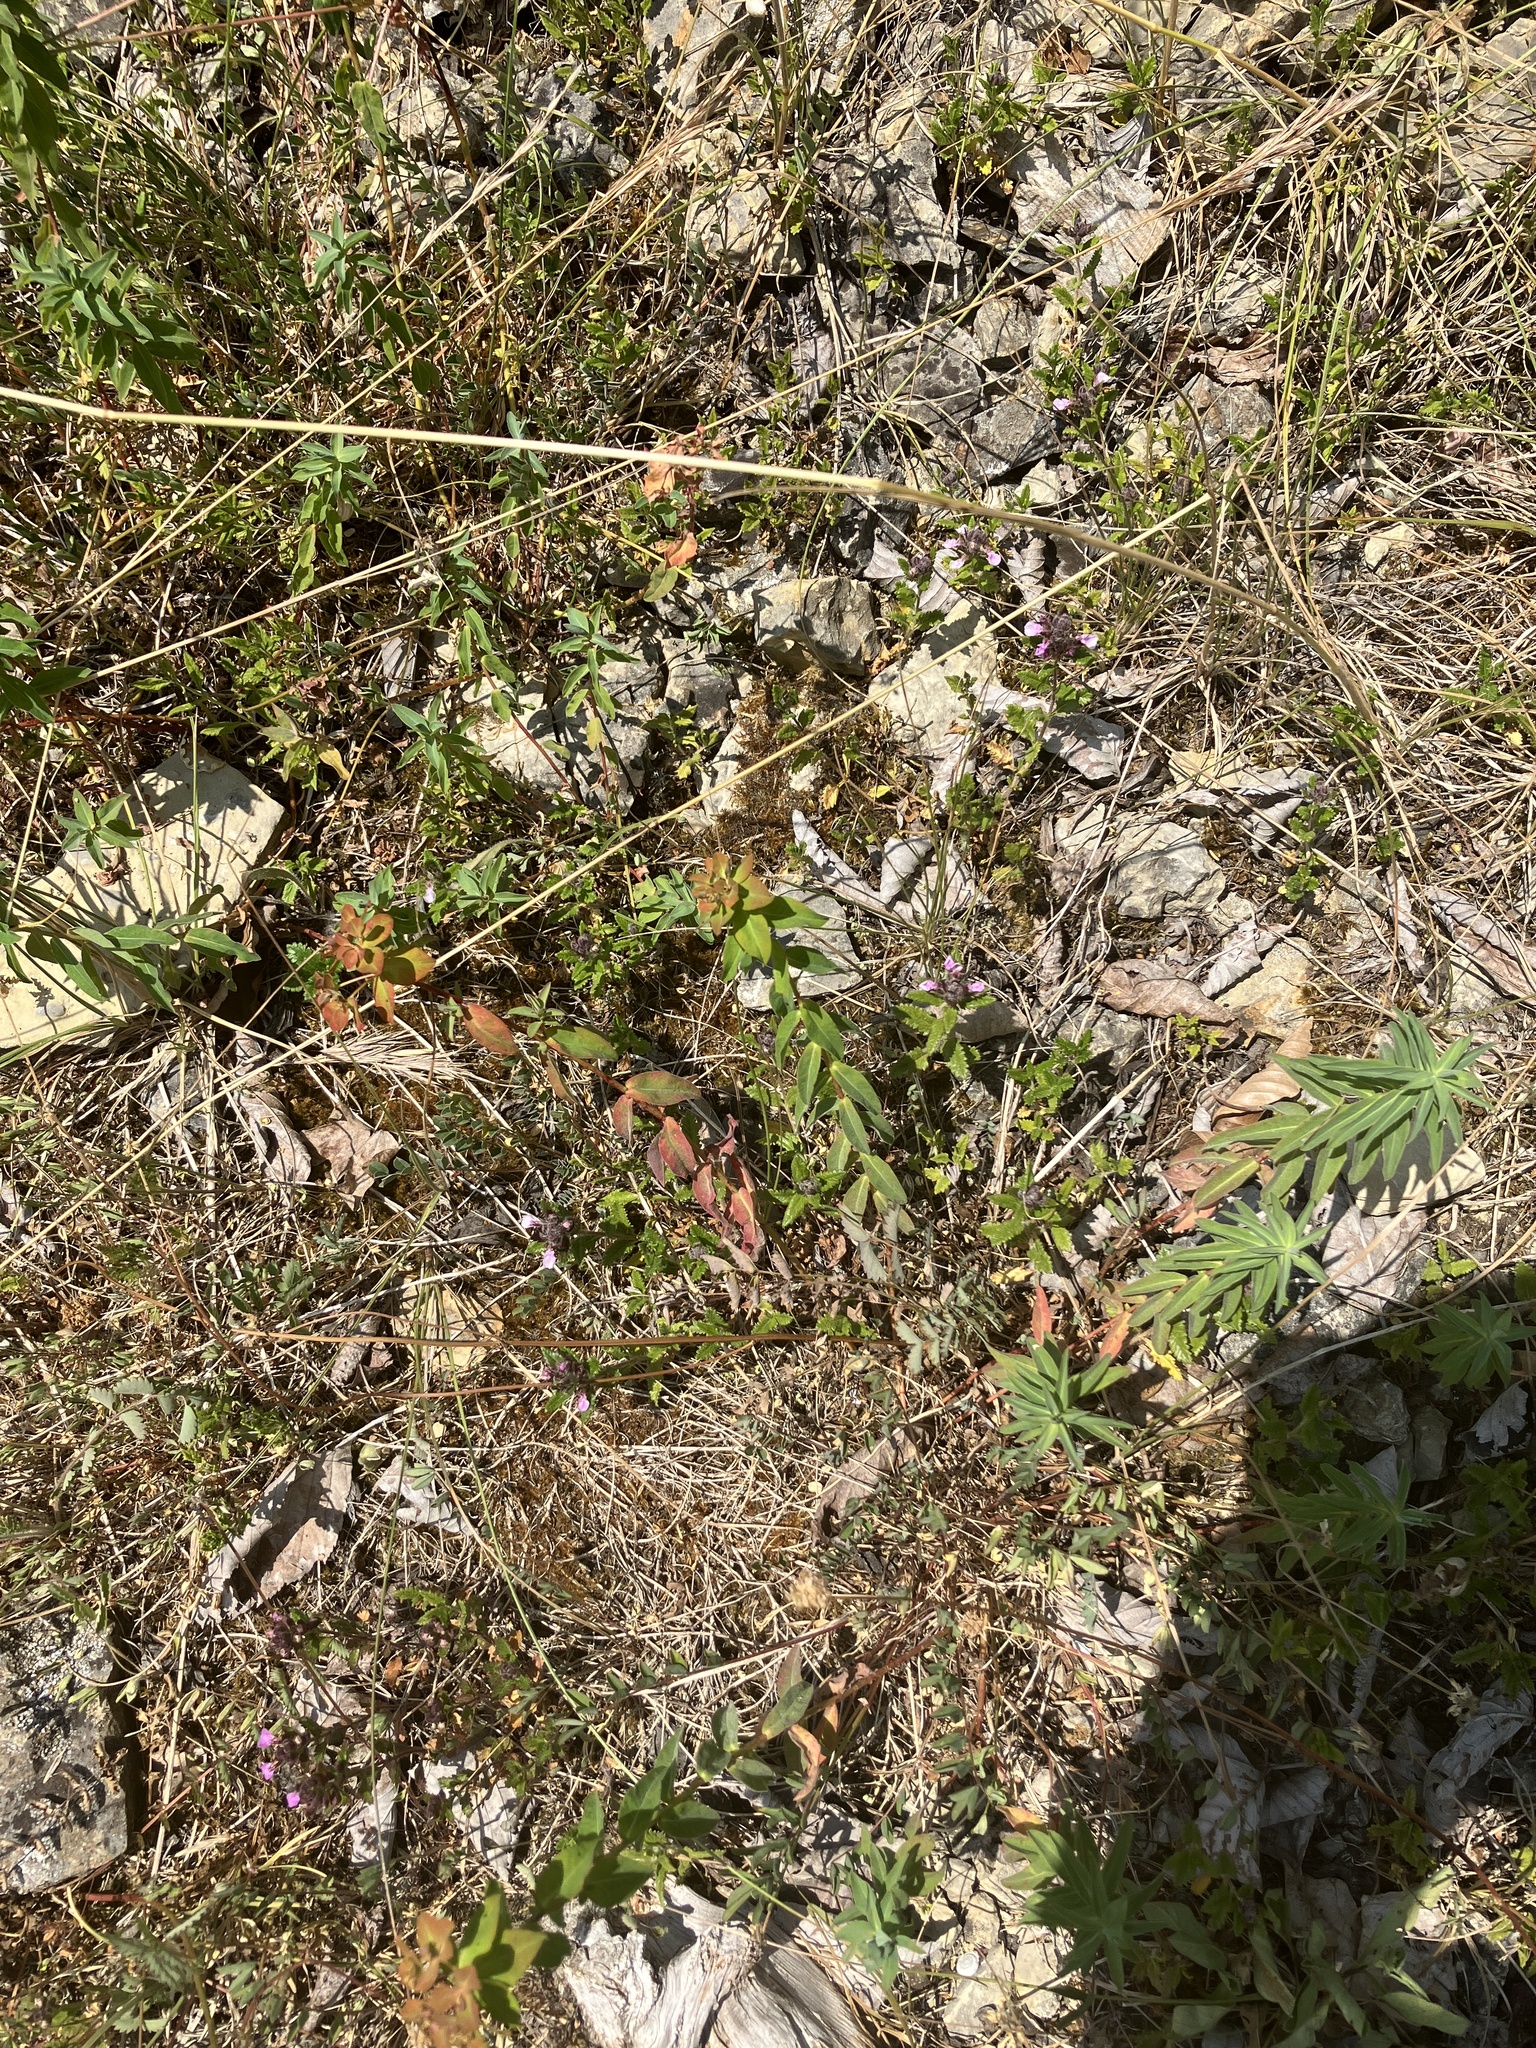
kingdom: Plantae
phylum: Tracheophyta
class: Magnoliopsida
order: Malpighiales
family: Euphorbiaceae
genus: Euphorbia
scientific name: Euphorbia verrucosa
